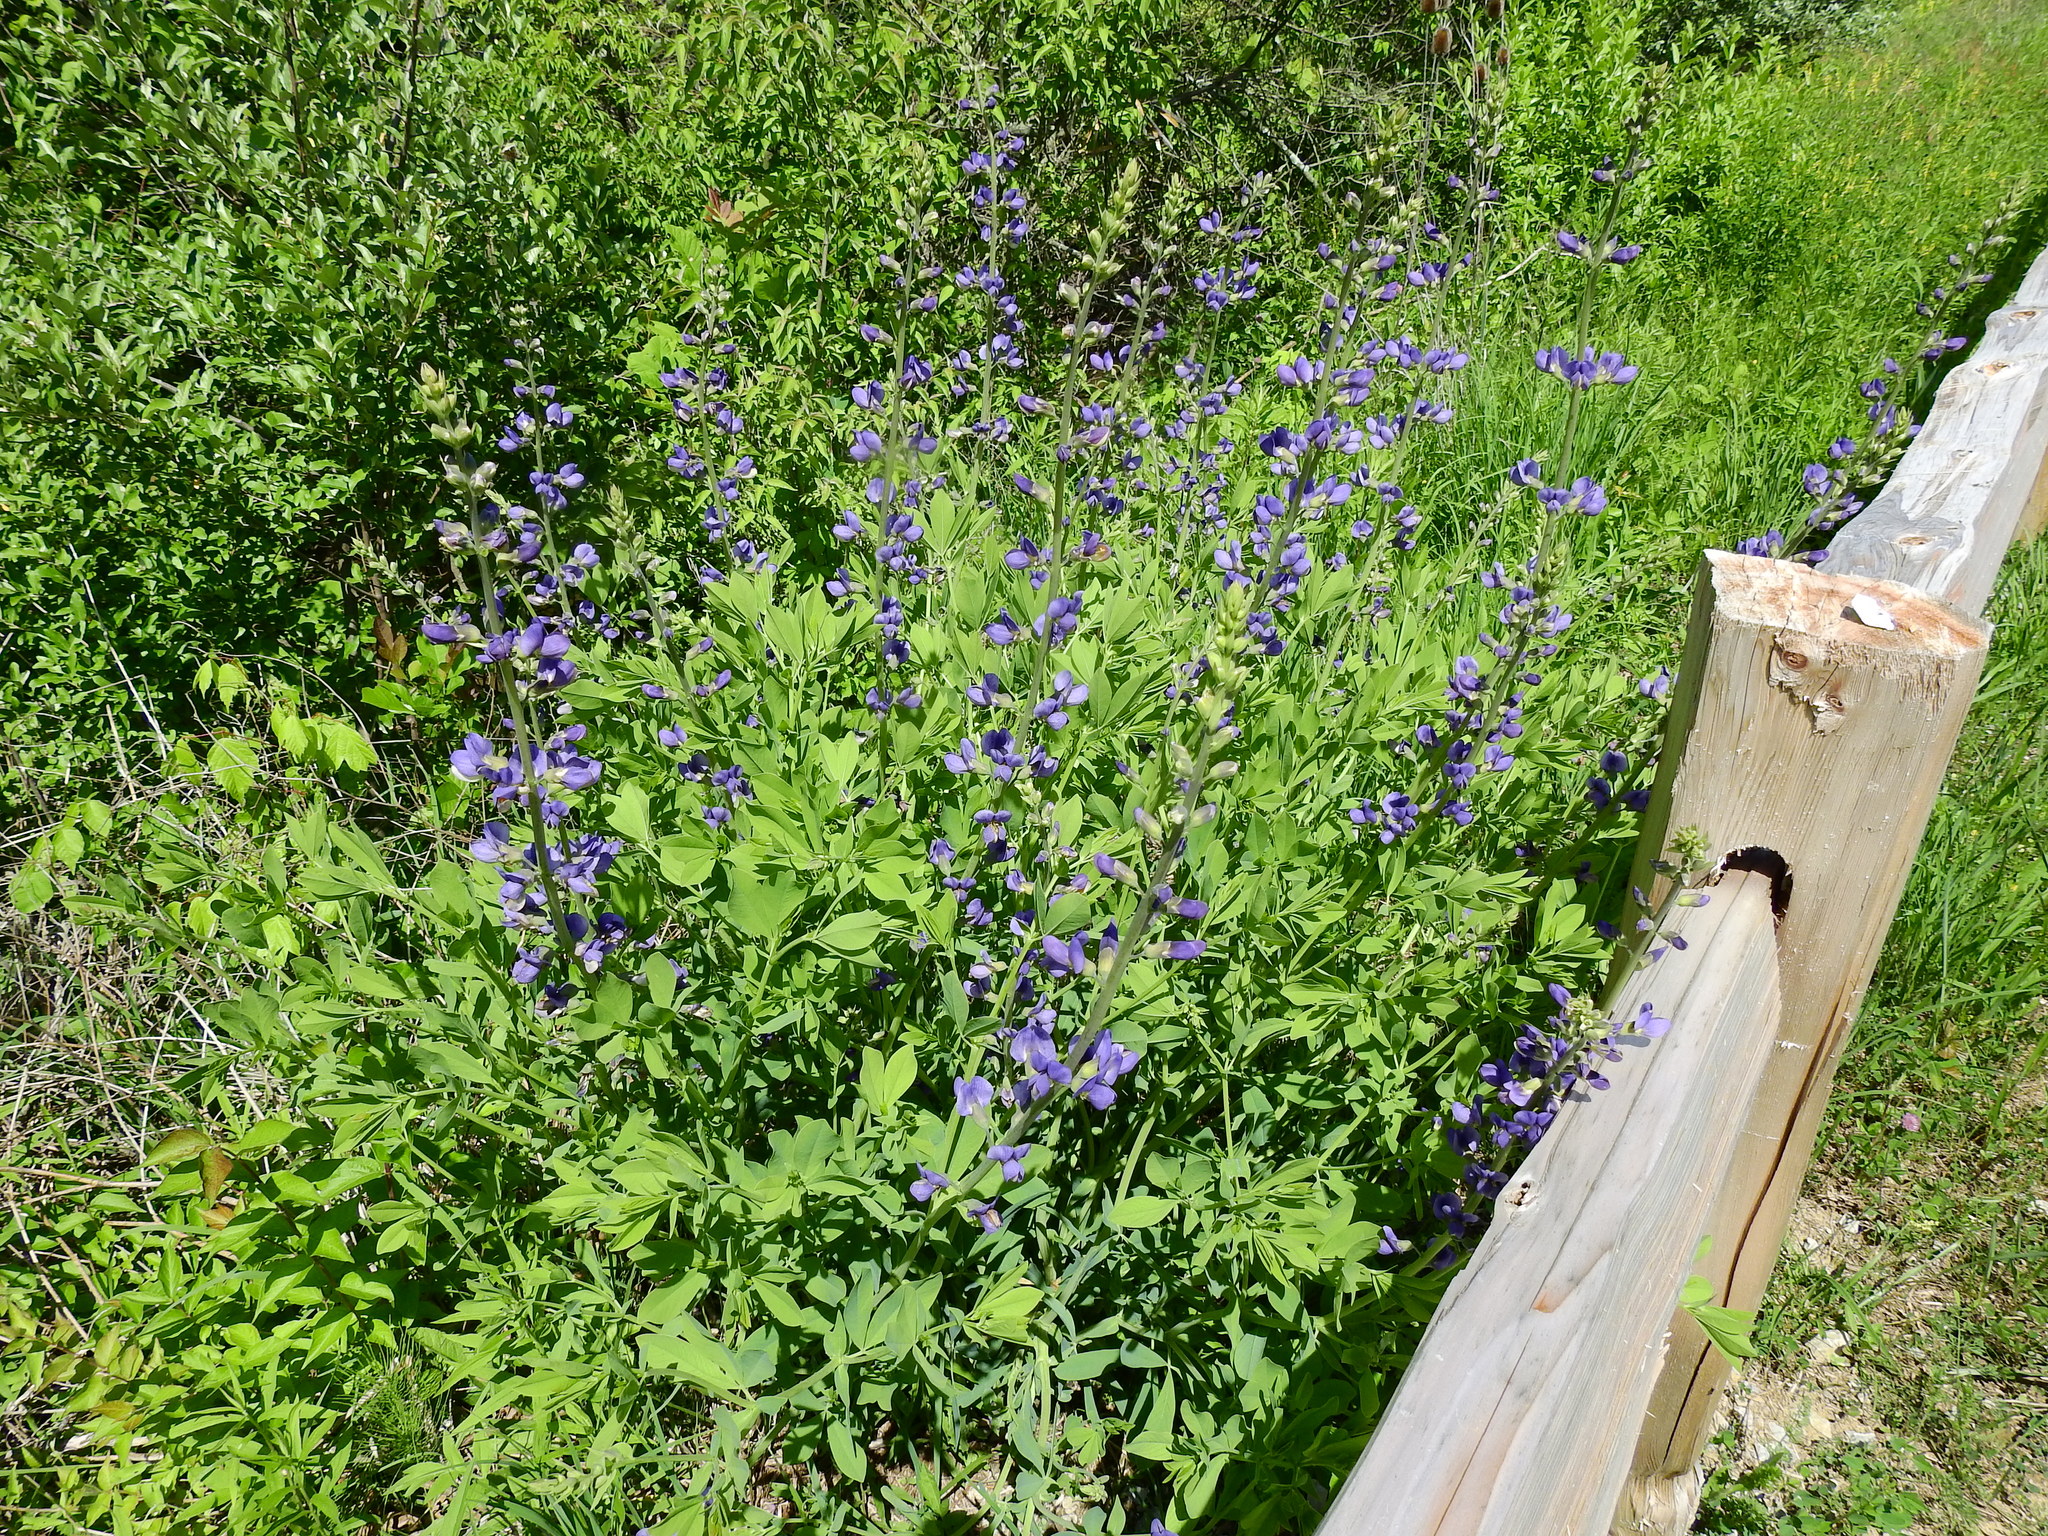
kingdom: Plantae
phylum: Tracheophyta
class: Magnoliopsida
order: Fabales
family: Fabaceae
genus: Baptisia
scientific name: Baptisia australis
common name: Blue false indigo
